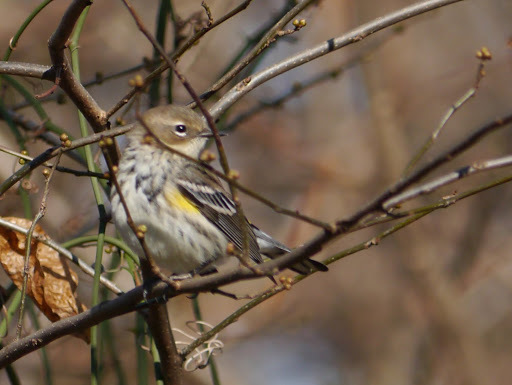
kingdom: Animalia
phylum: Chordata
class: Aves
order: Passeriformes
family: Parulidae
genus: Setophaga
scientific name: Setophaga coronata
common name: Myrtle warbler
